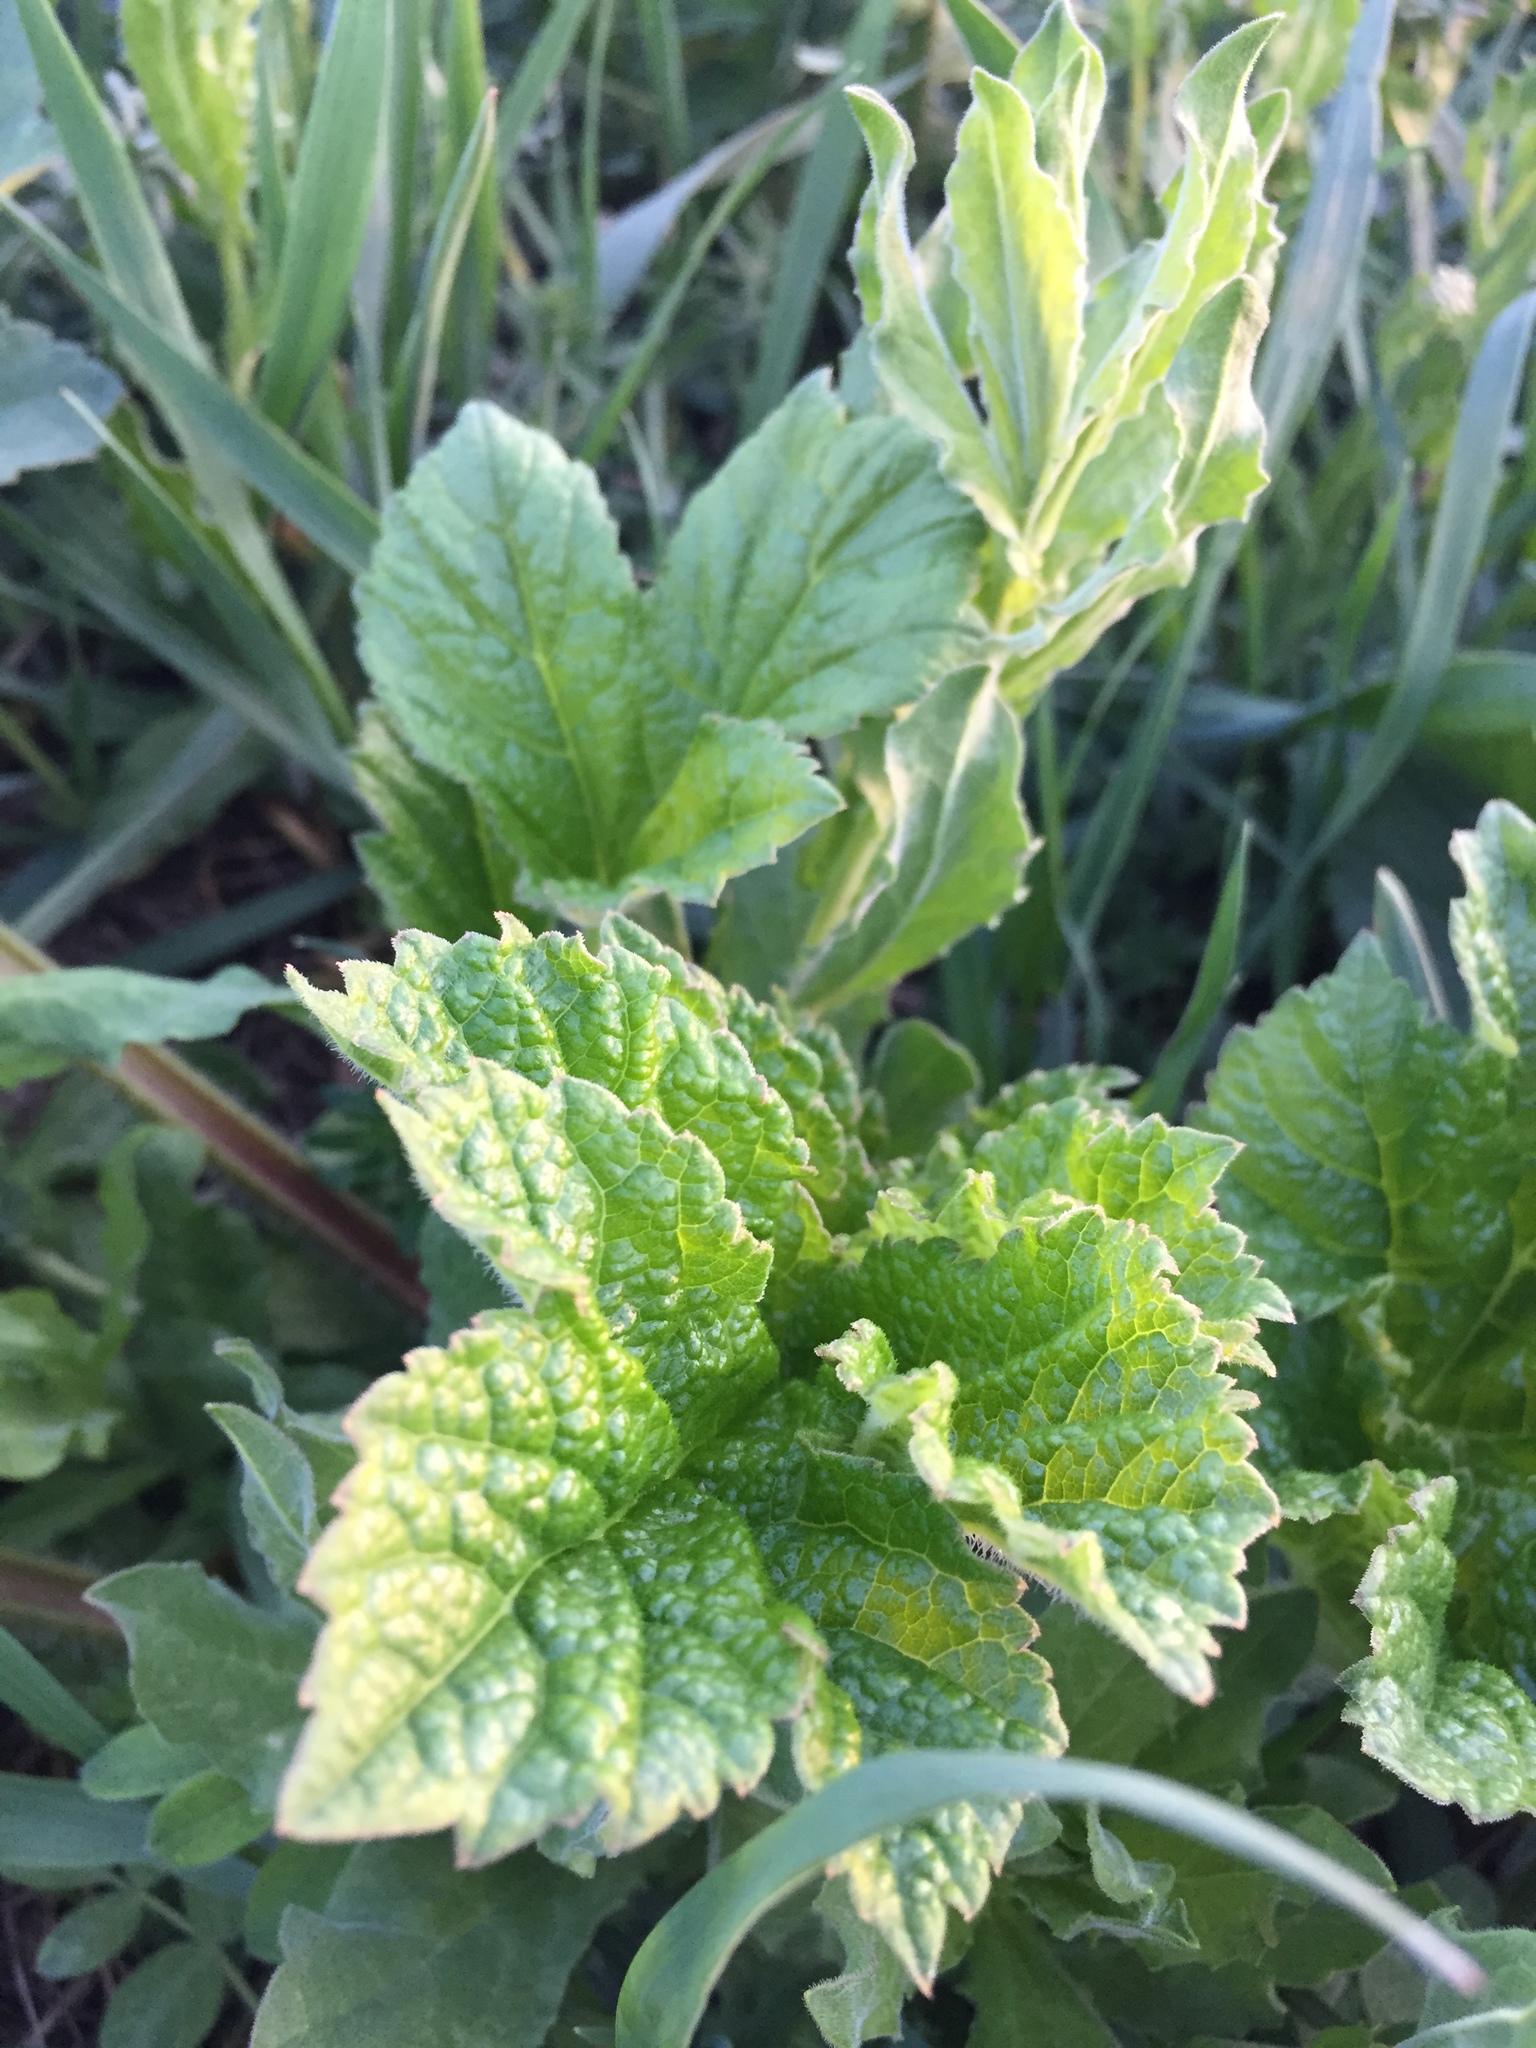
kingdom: Plantae
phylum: Tracheophyta
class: Magnoliopsida
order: Apiales
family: Apiaceae
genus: Heracleum
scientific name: Heracleum sphondylium
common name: Hogweed
